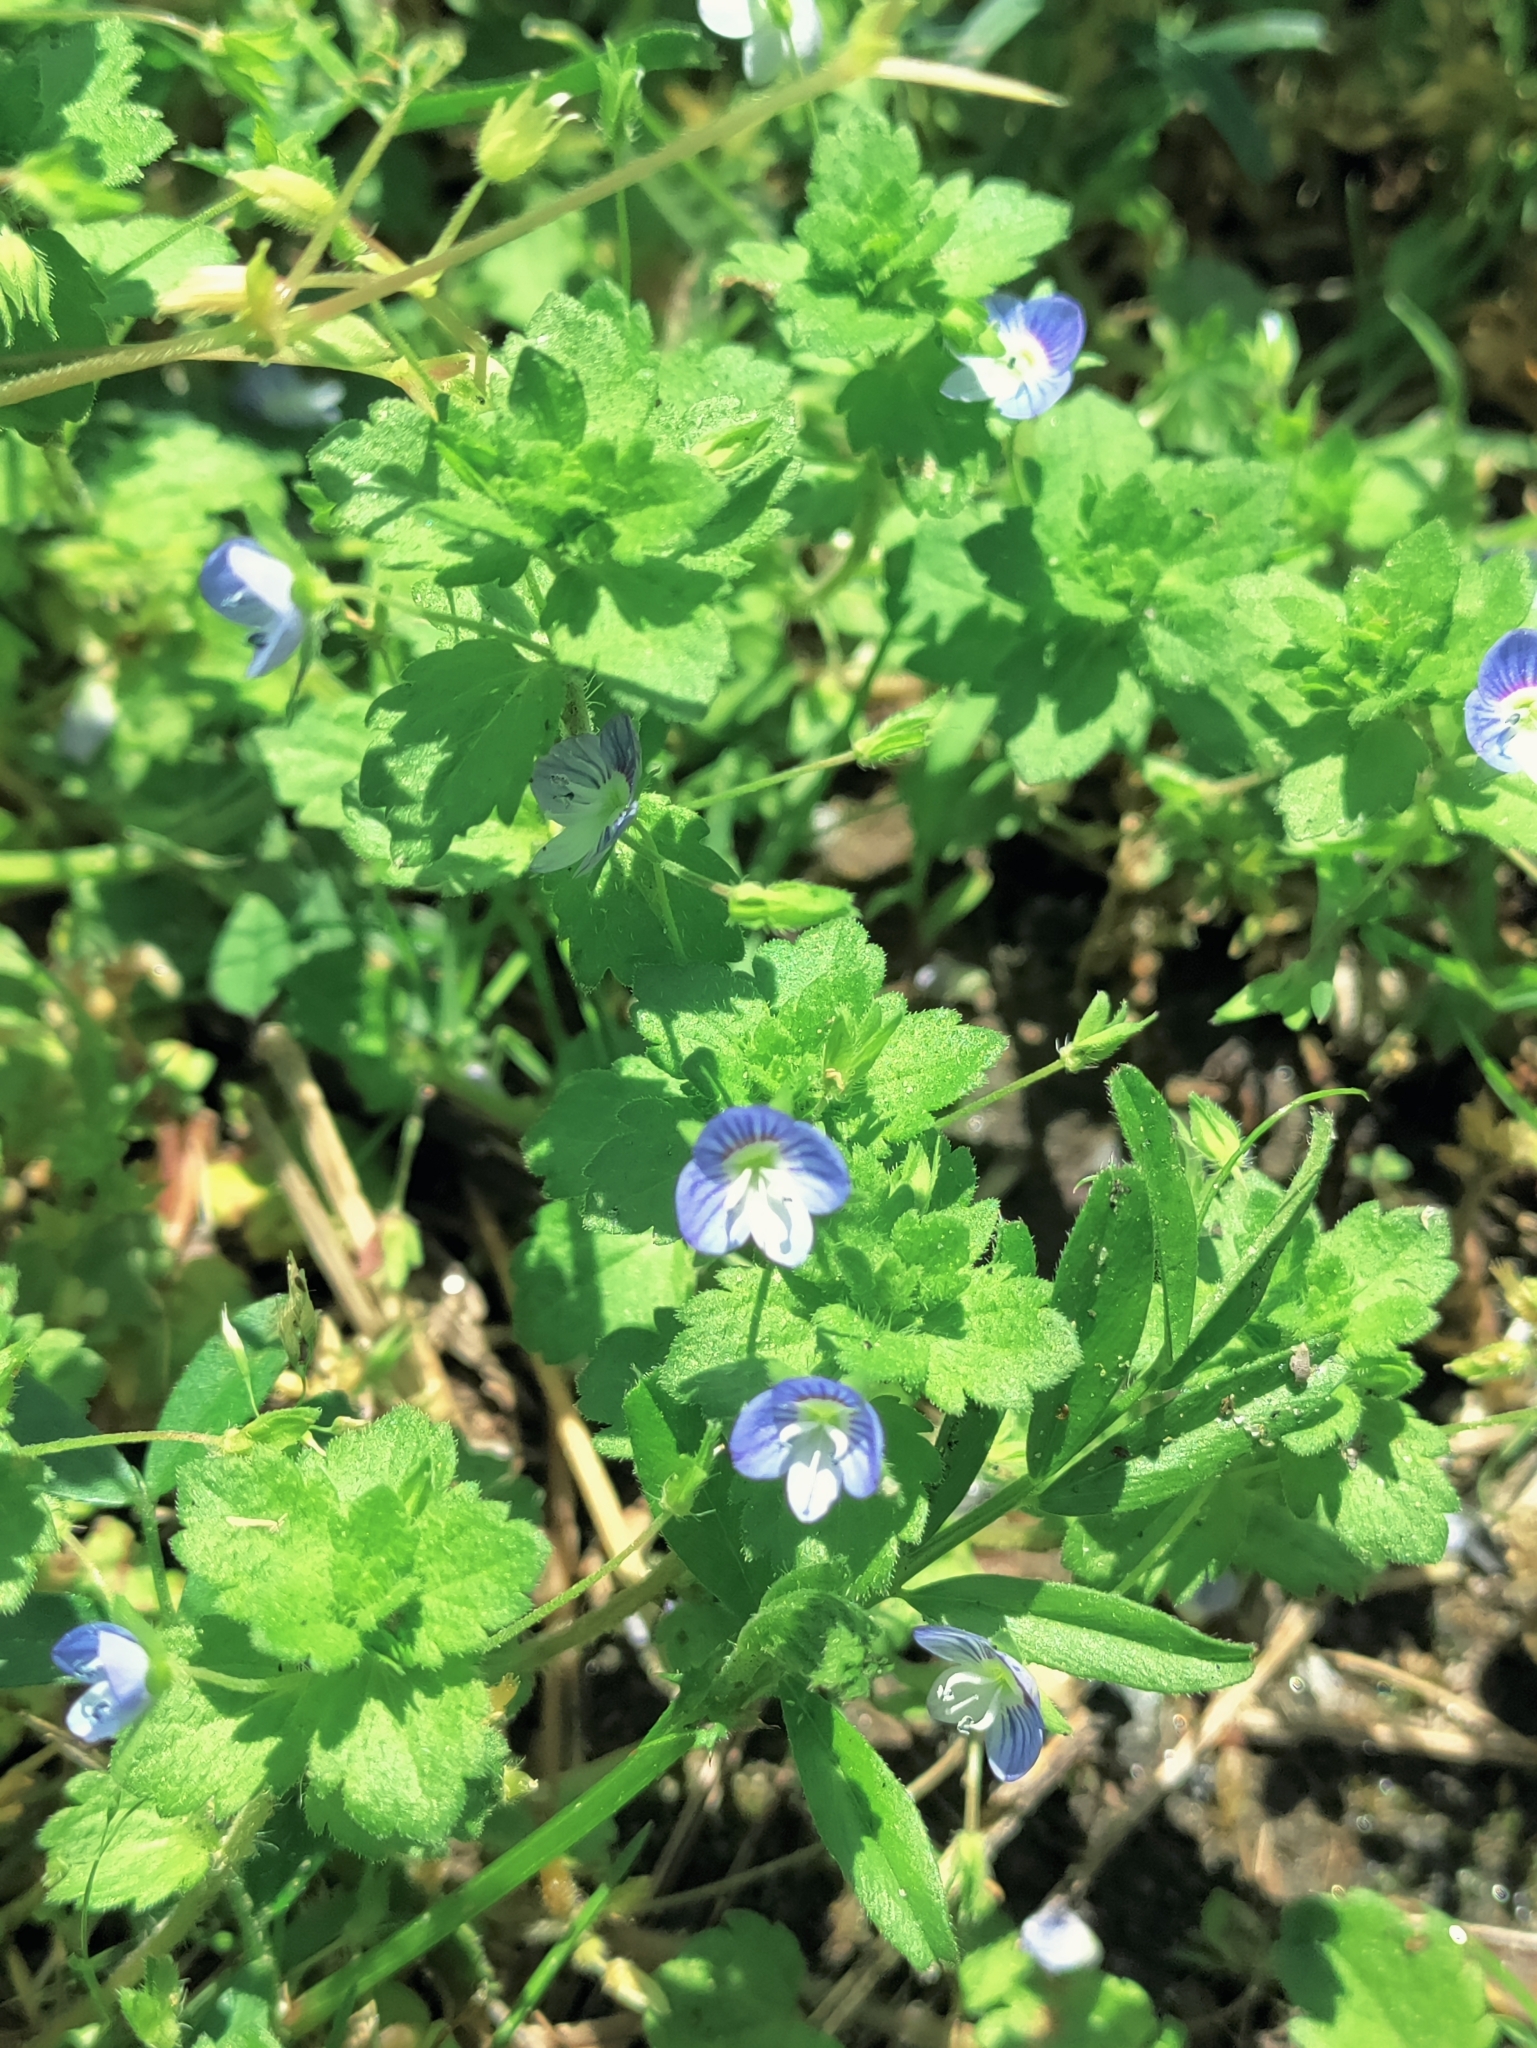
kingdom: Plantae
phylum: Tracheophyta
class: Magnoliopsida
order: Lamiales
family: Plantaginaceae
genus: Veronica
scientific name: Veronica persica
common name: Common field-speedwell
